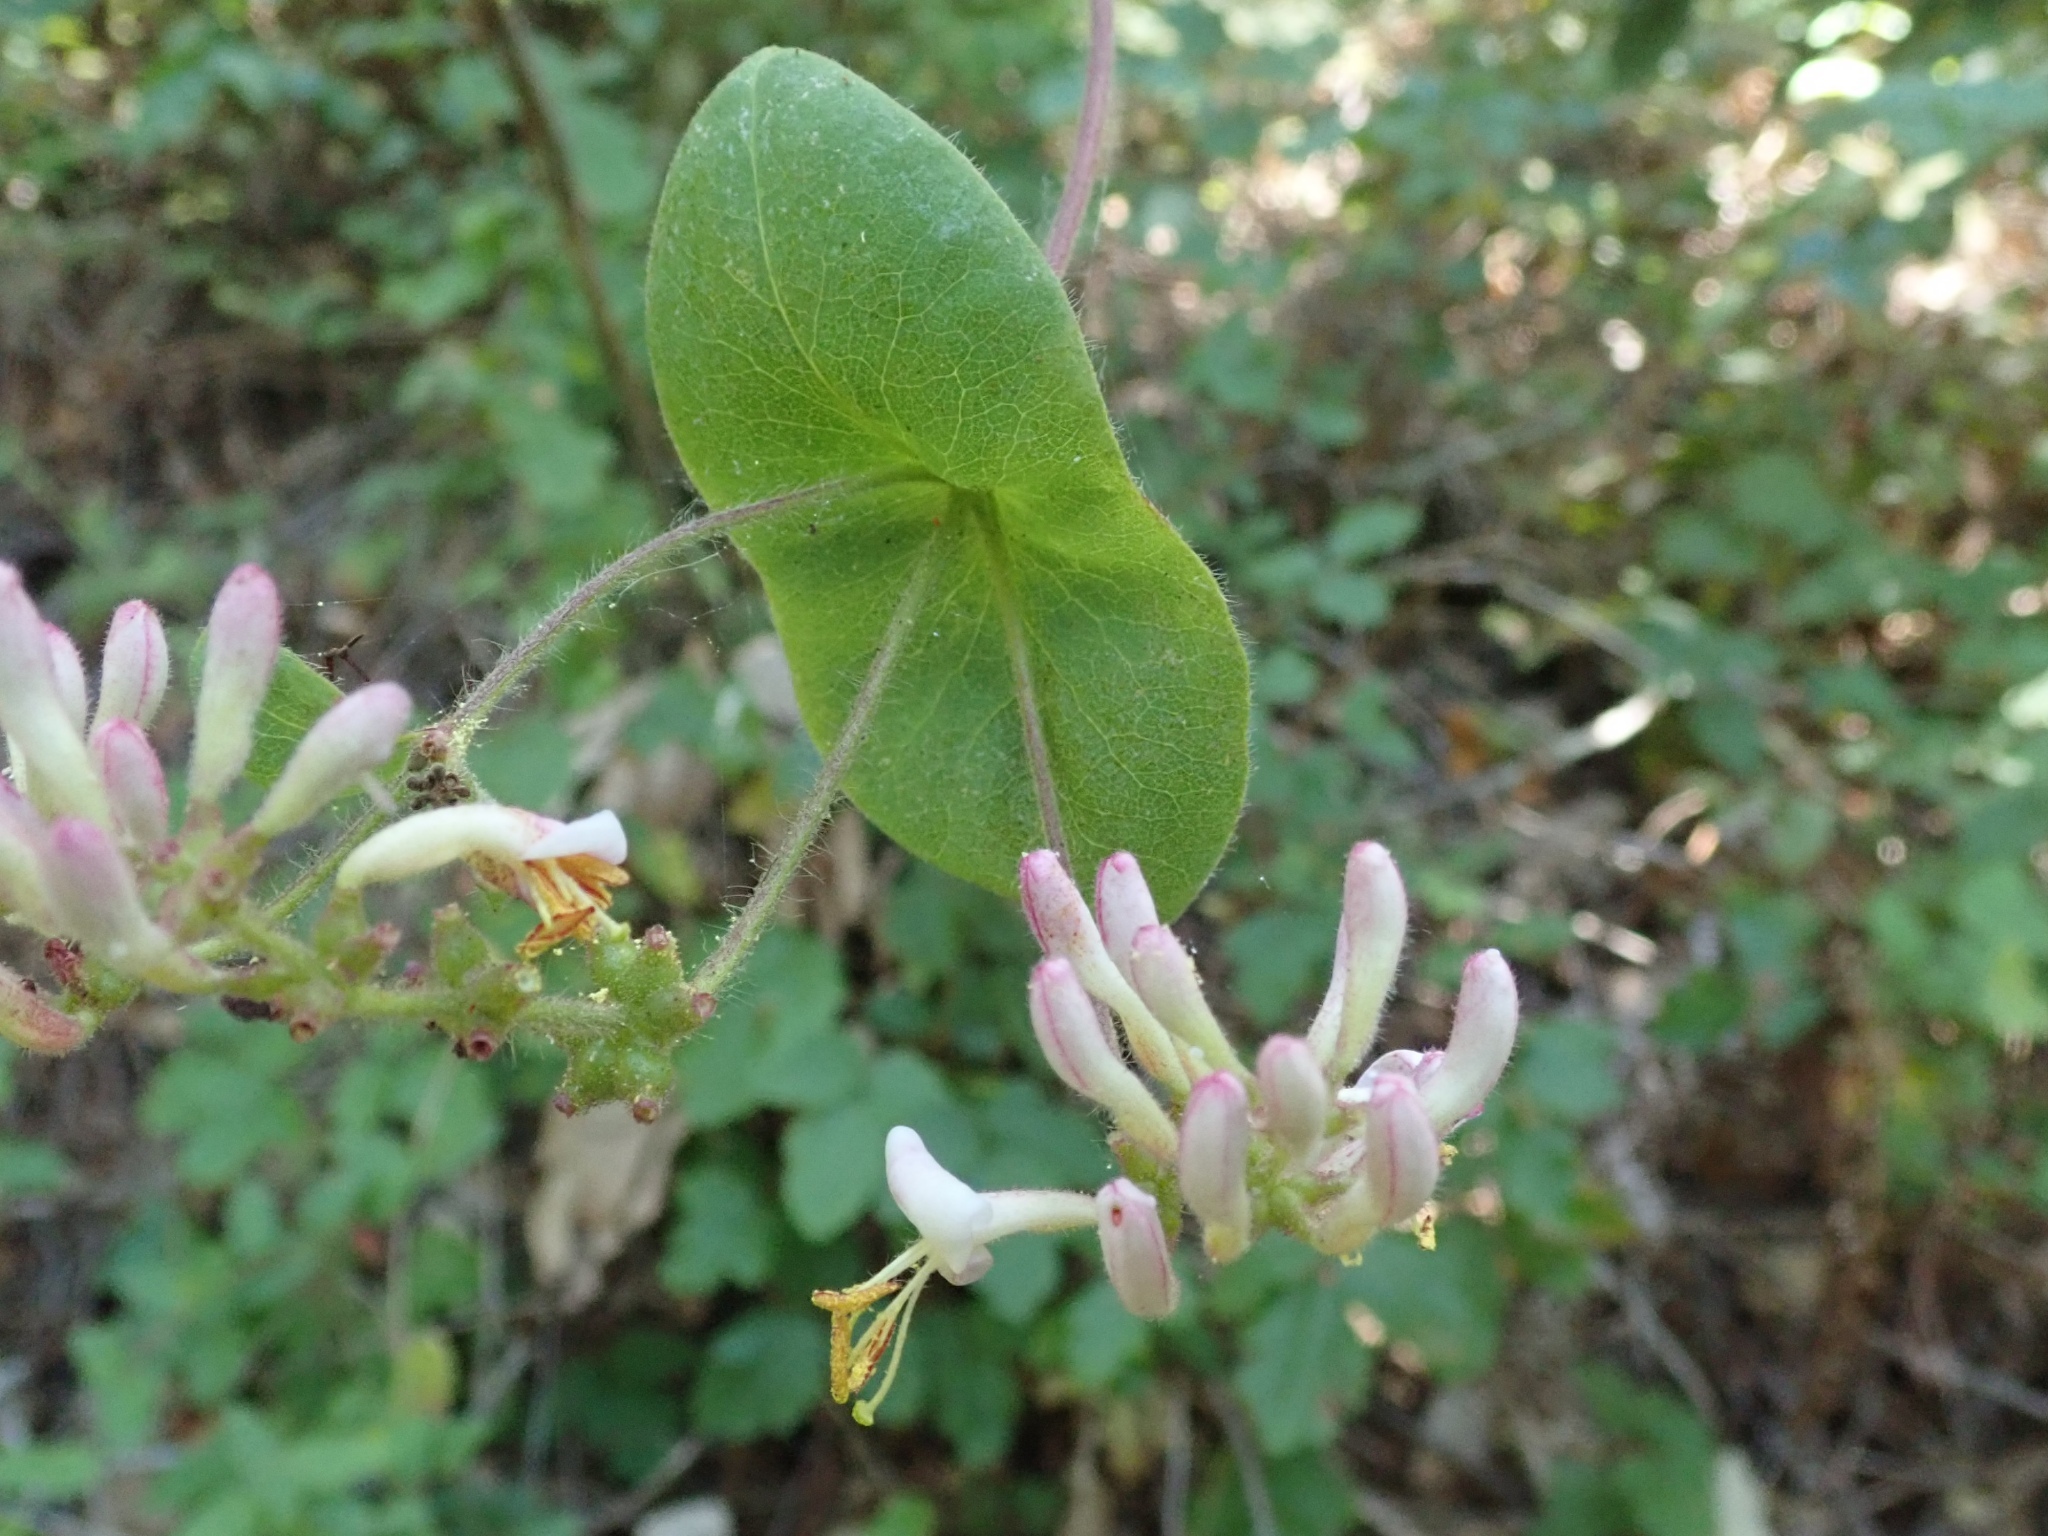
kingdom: Plantae
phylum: Tracheophyta
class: Magnoliopsida
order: Dipsacales
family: Caprifoliaceae
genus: Lonicera
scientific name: Lonicera hispidula
